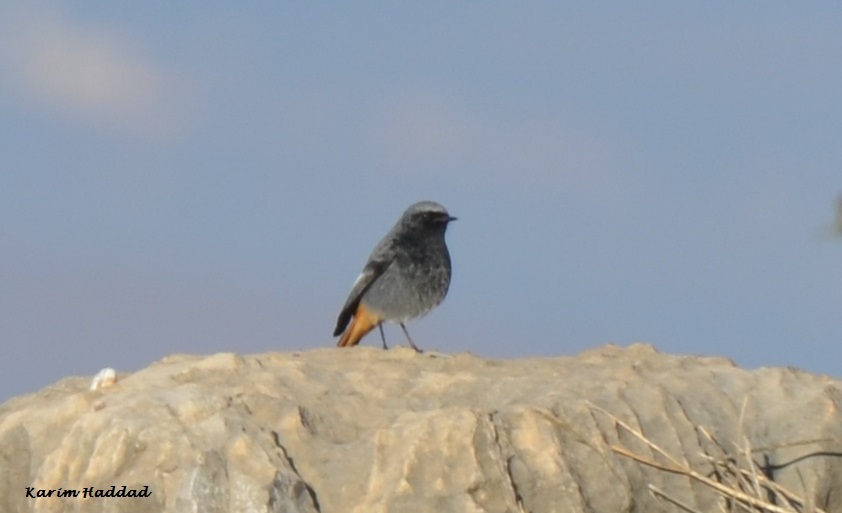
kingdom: Animalia
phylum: Chordata
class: Aves
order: Passeriformes
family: Muscicapidae
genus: Phoenicurus
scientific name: Phoenicurus ochruros
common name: Black redstart
